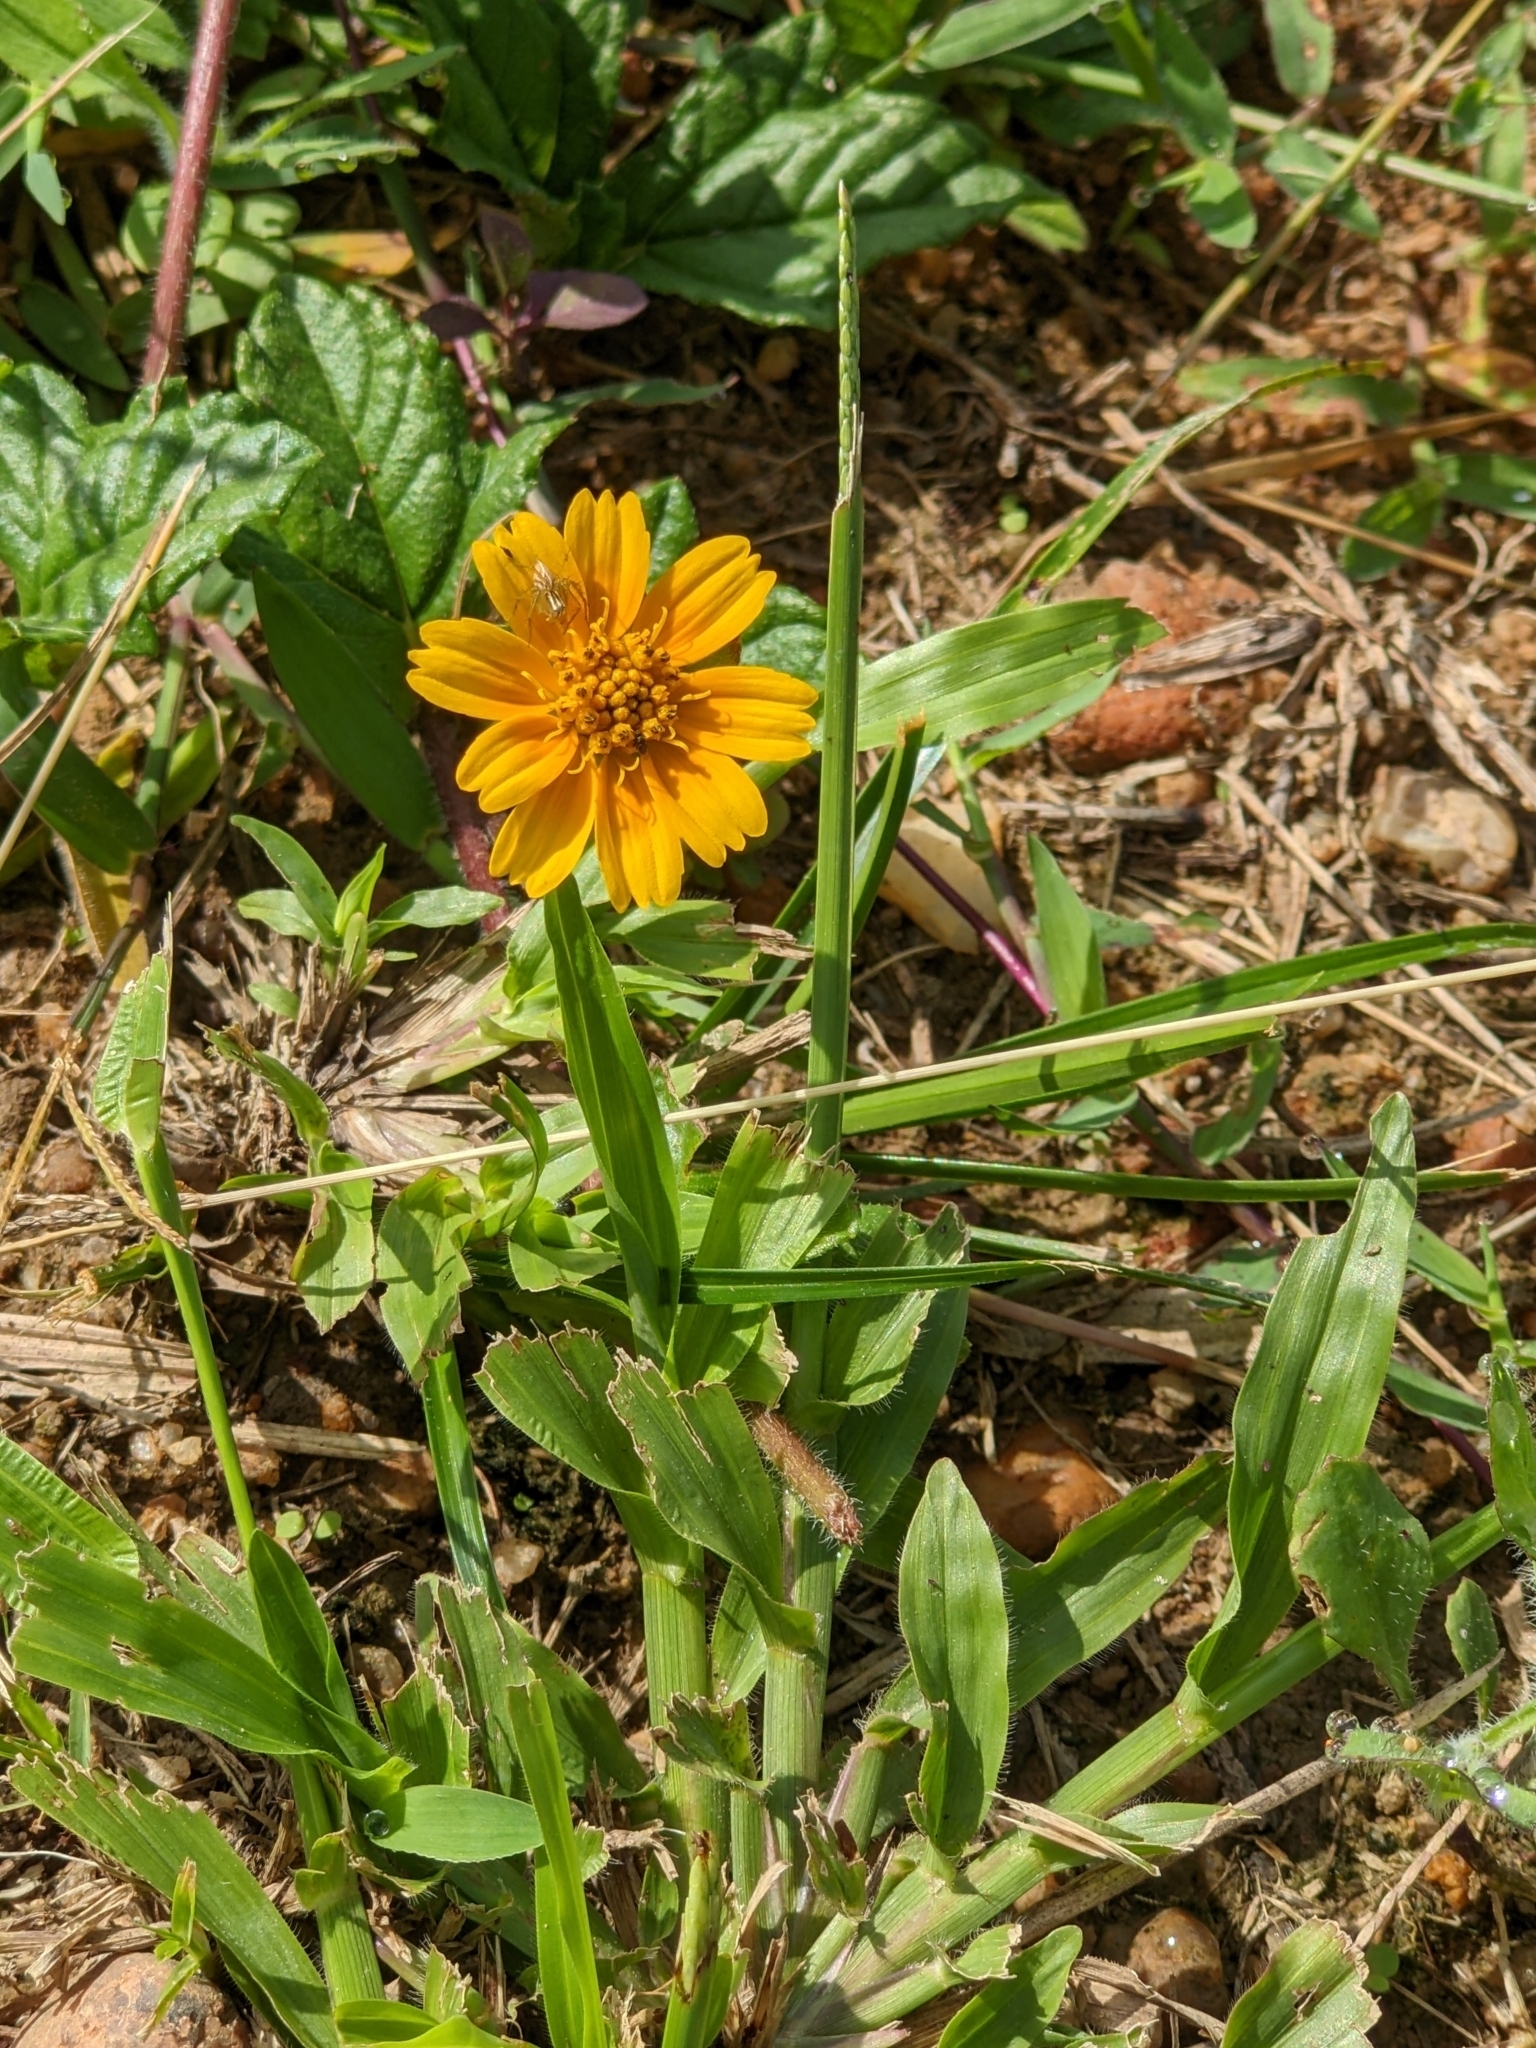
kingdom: Plantae
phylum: Tracheophyta
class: Magnoliopsida
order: Asterales
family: Asteraceae
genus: Sphagneticola
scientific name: Sphagneticola trilobata
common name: Bay biscayne creeping-oxeye
